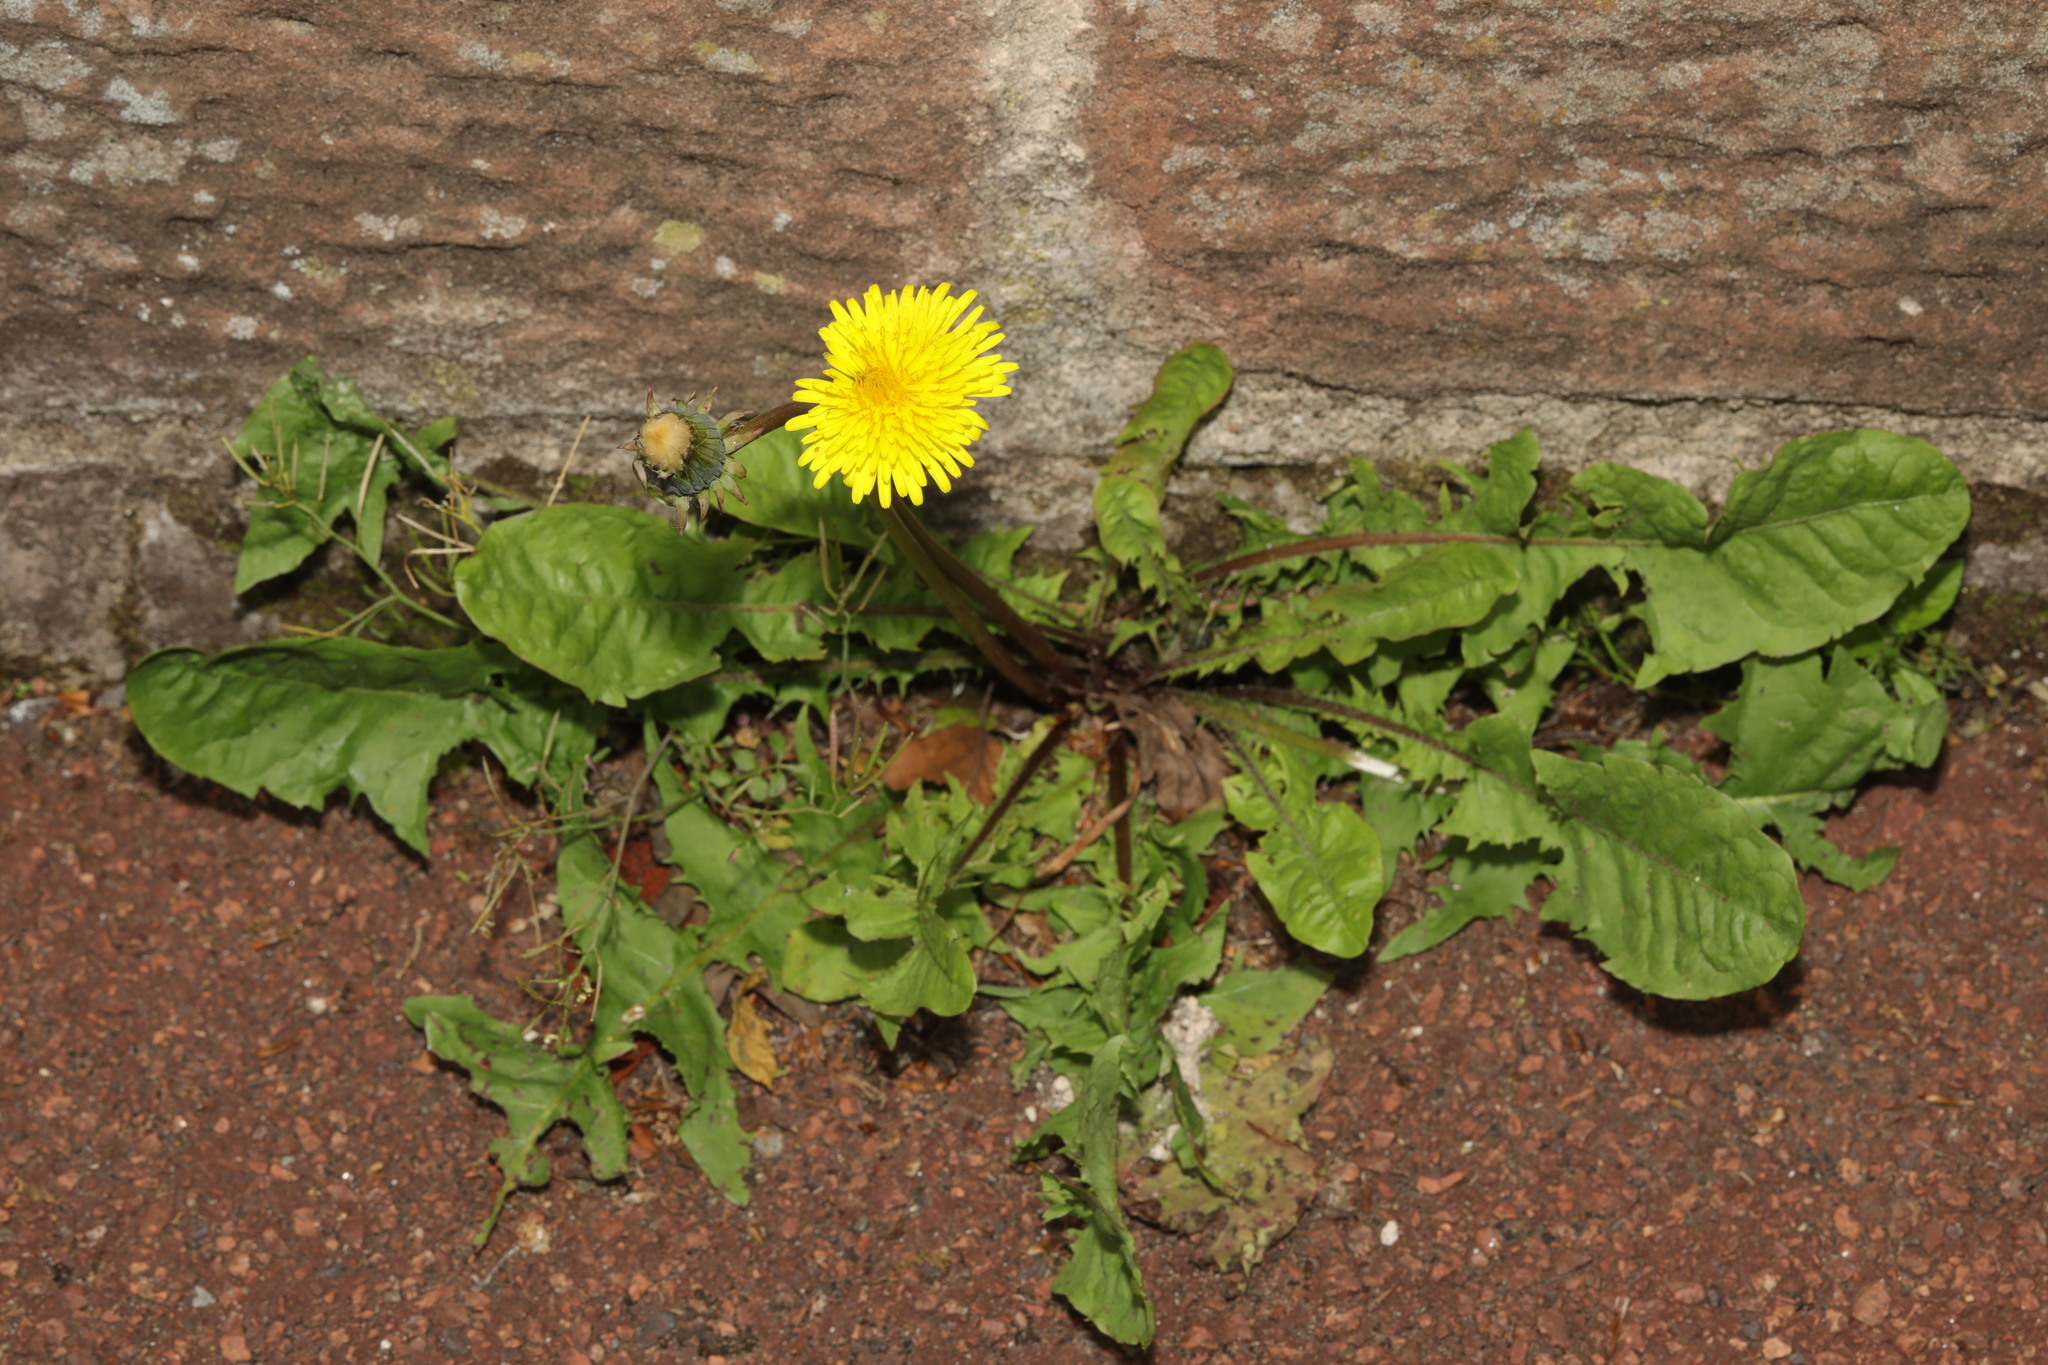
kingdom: Plantae
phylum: Tracheophyta
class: Magnoliopsida
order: Asterales
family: Asteraceae
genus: Taraxacum
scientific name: Taraxacum officinale
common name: Common dandelion
